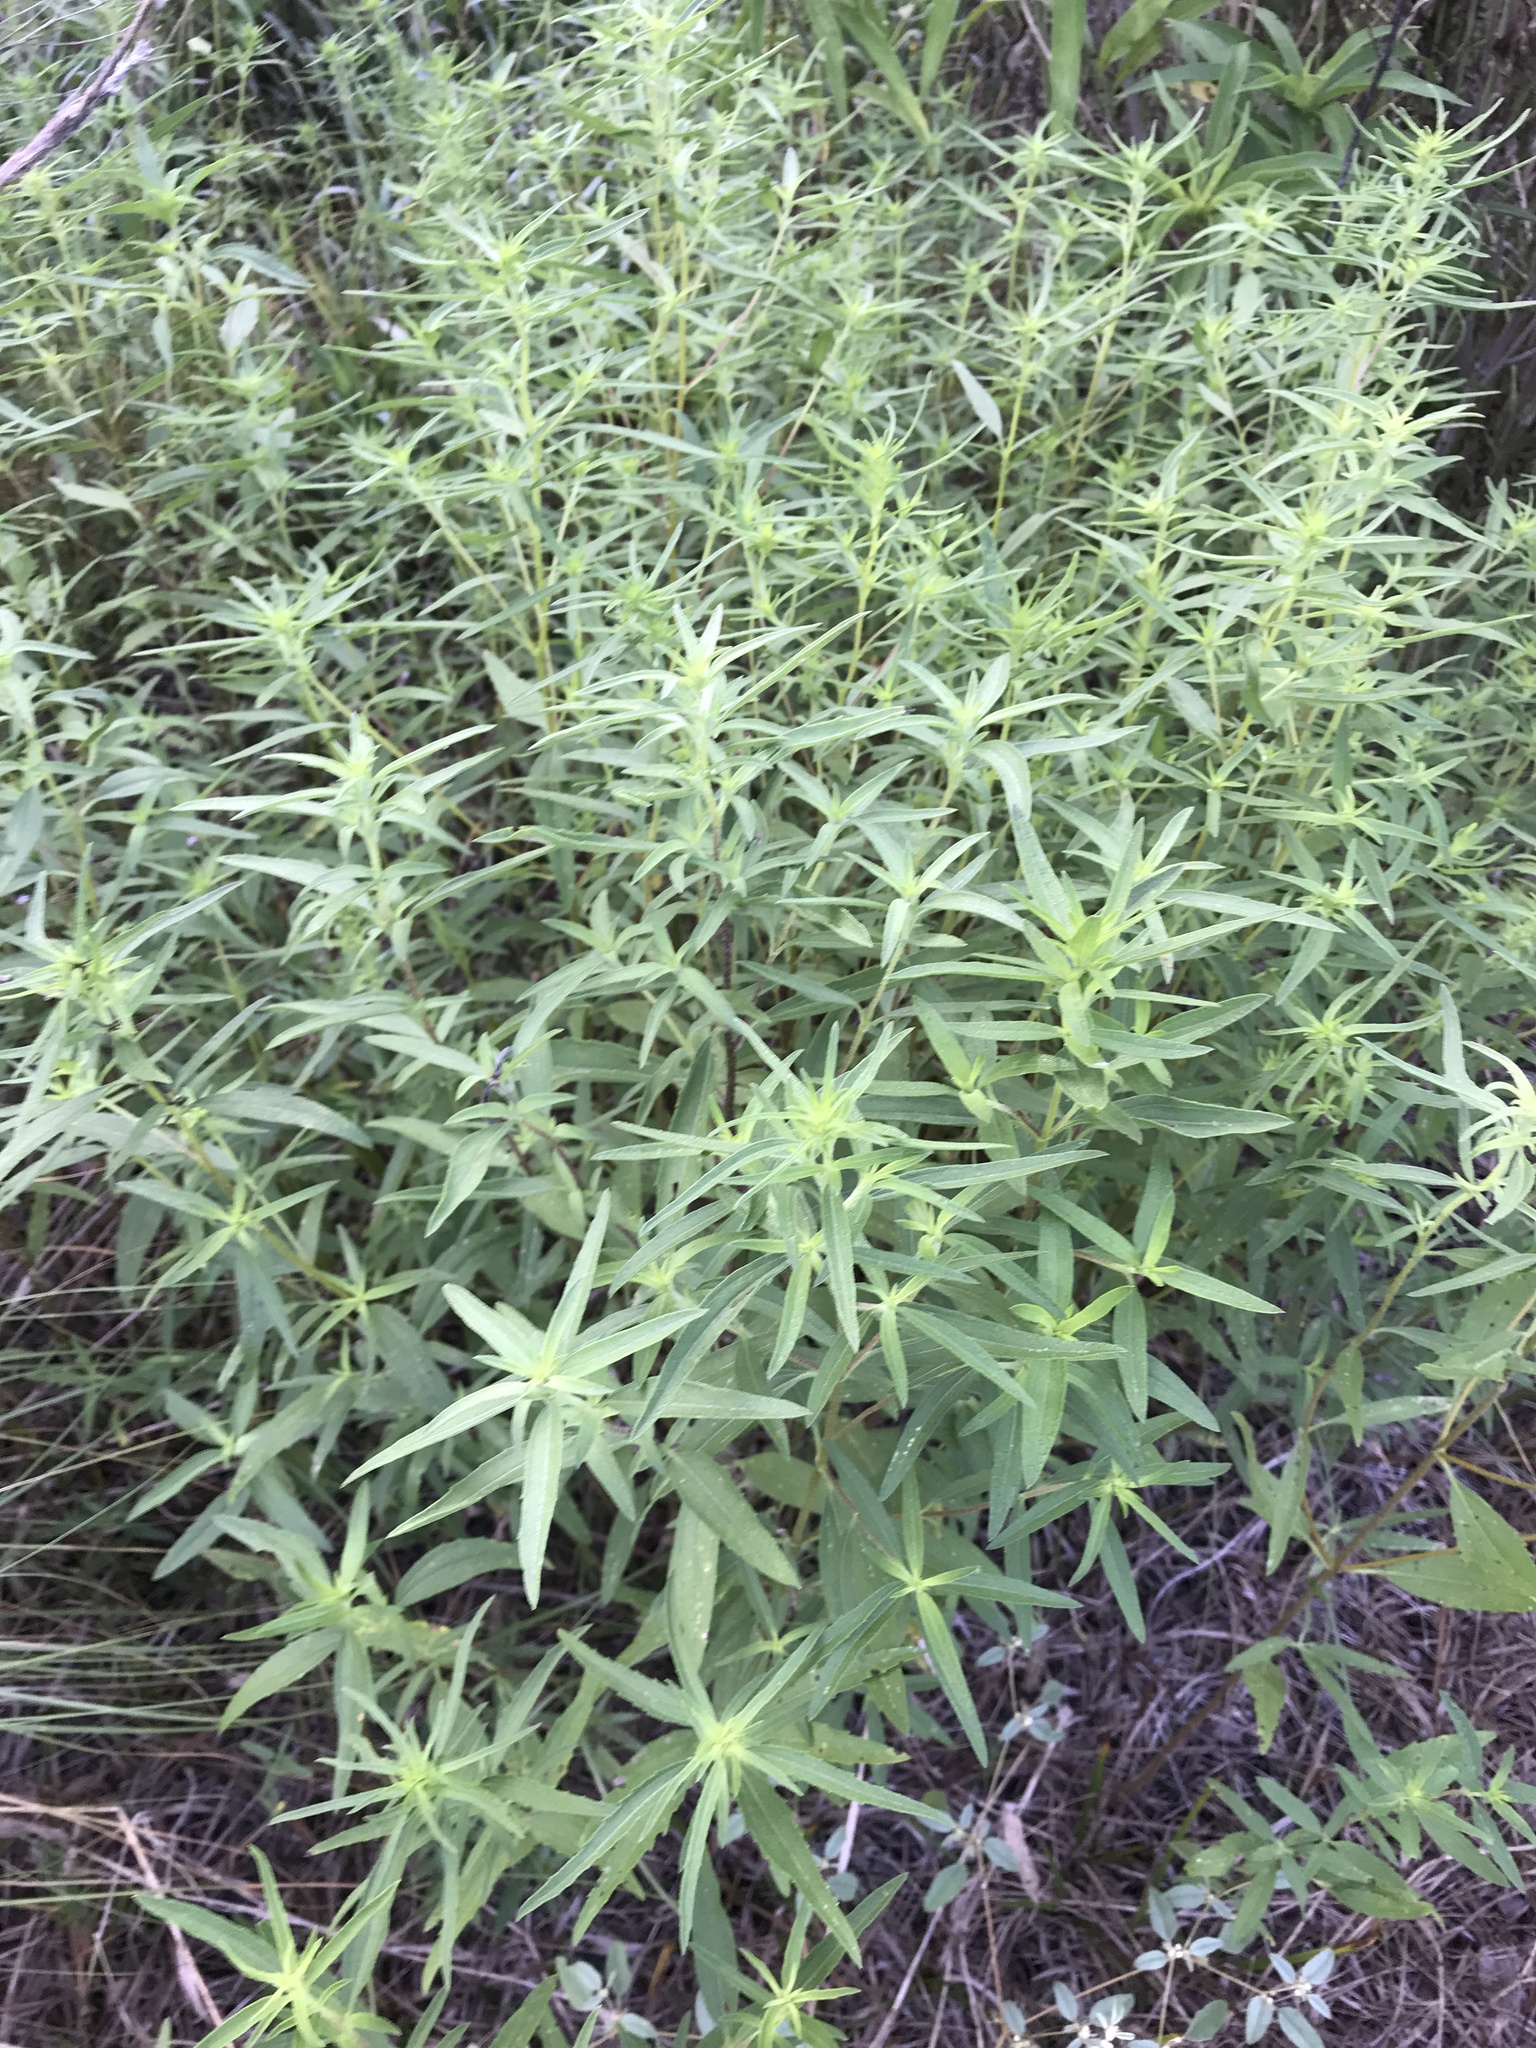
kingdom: Plantae
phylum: Tracheophyta
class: Magnoliopsida
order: Asterales
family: Asteraceae
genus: Iva
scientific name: Iva asperifolia
